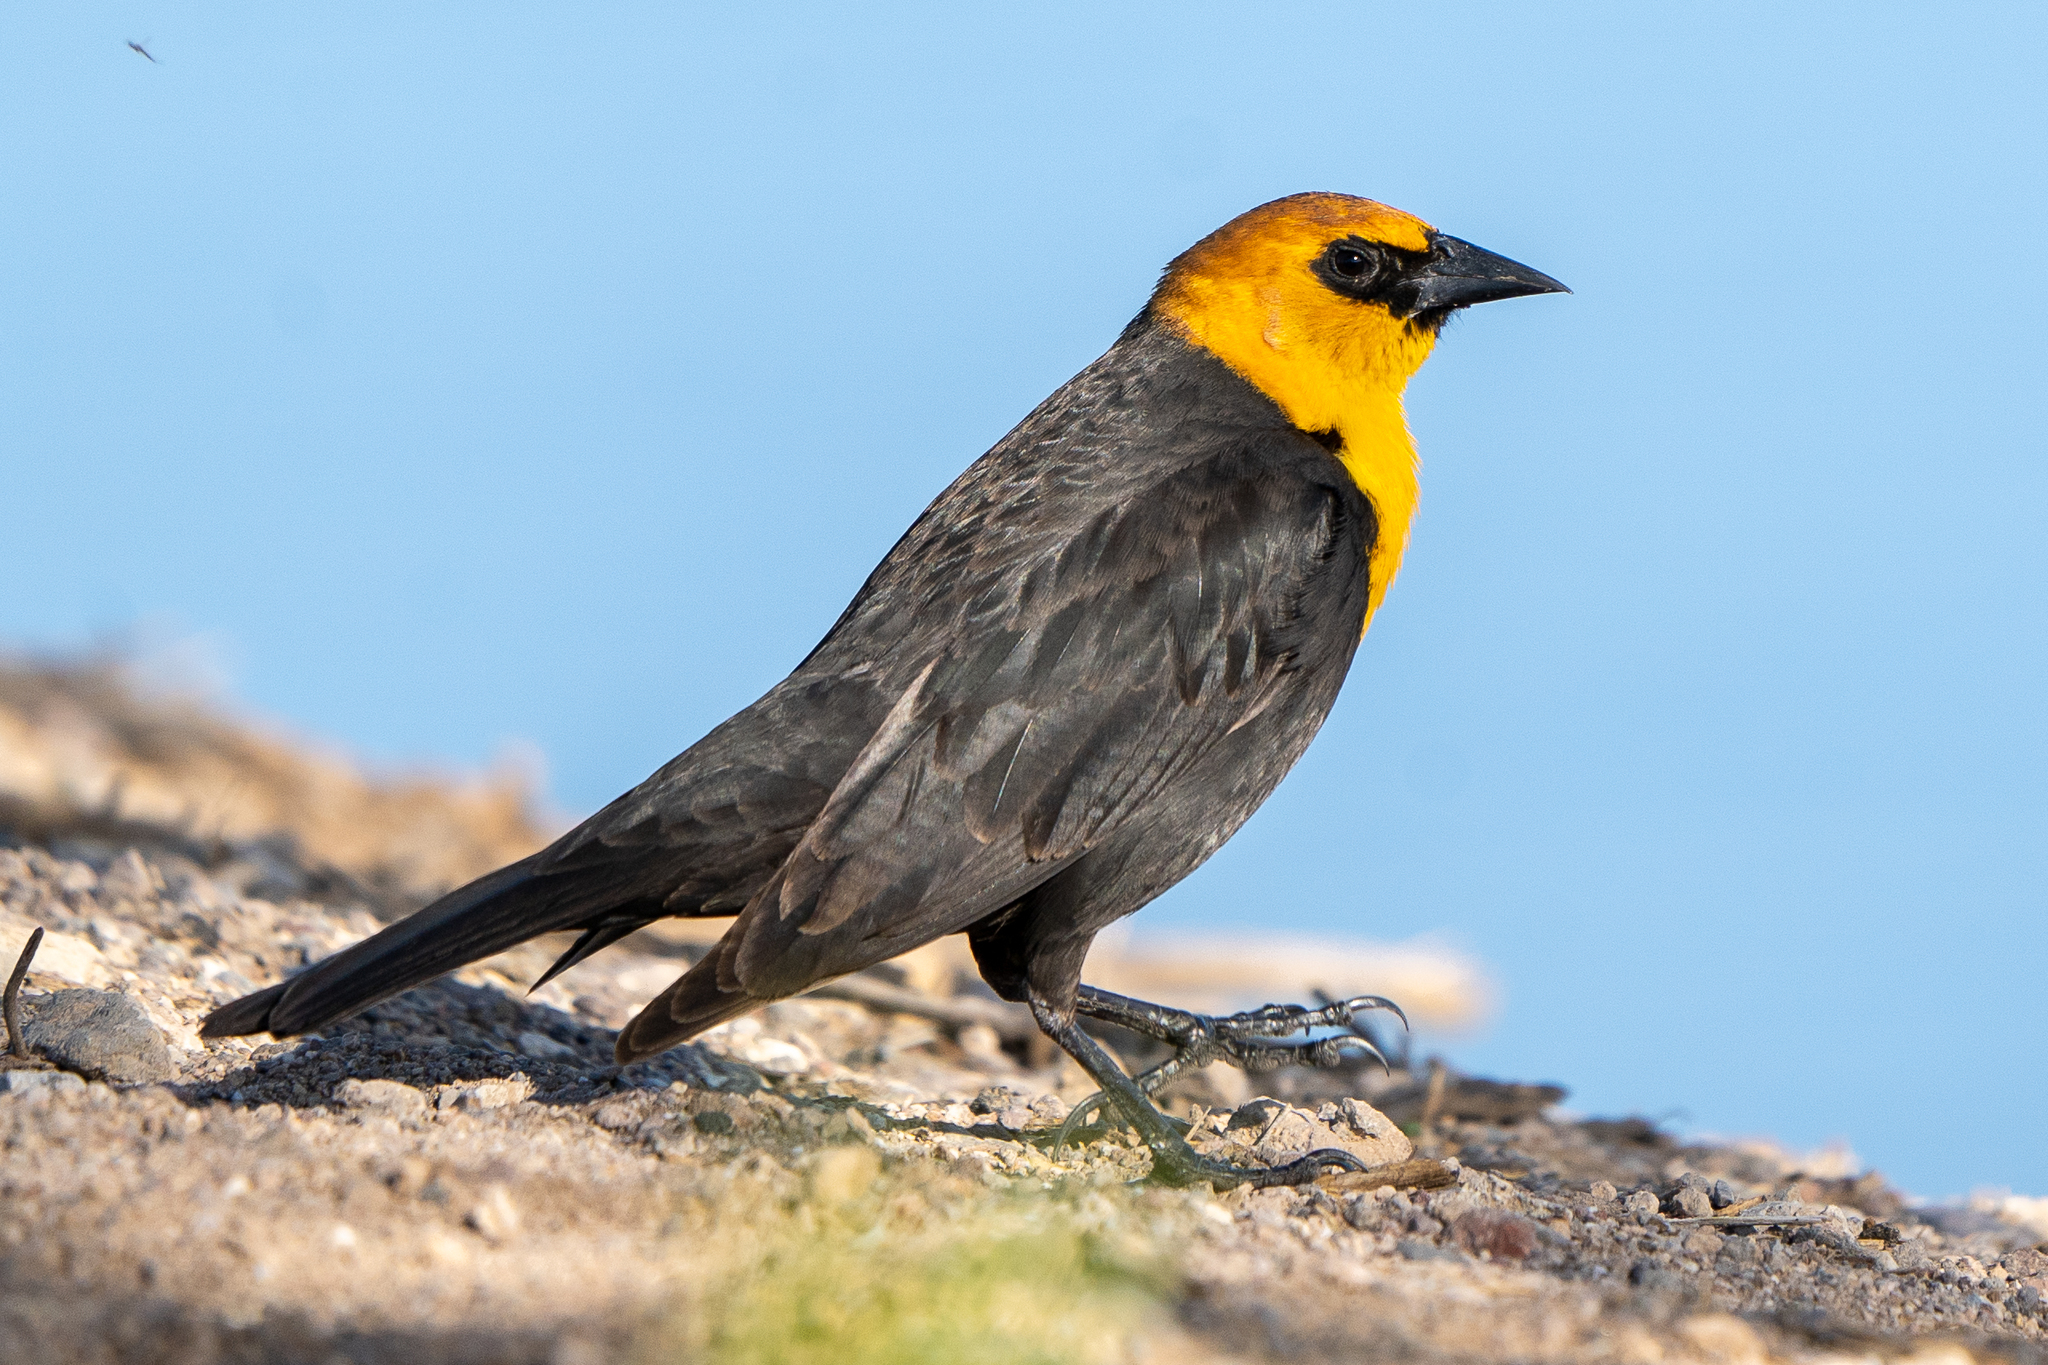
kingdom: Animalia
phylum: Chordata
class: Aves
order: Passeriformes
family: Icteridae
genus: Xanthocephalus
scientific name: Xanthocephalus xanthocephalus
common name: Yellow-headed blackbird
